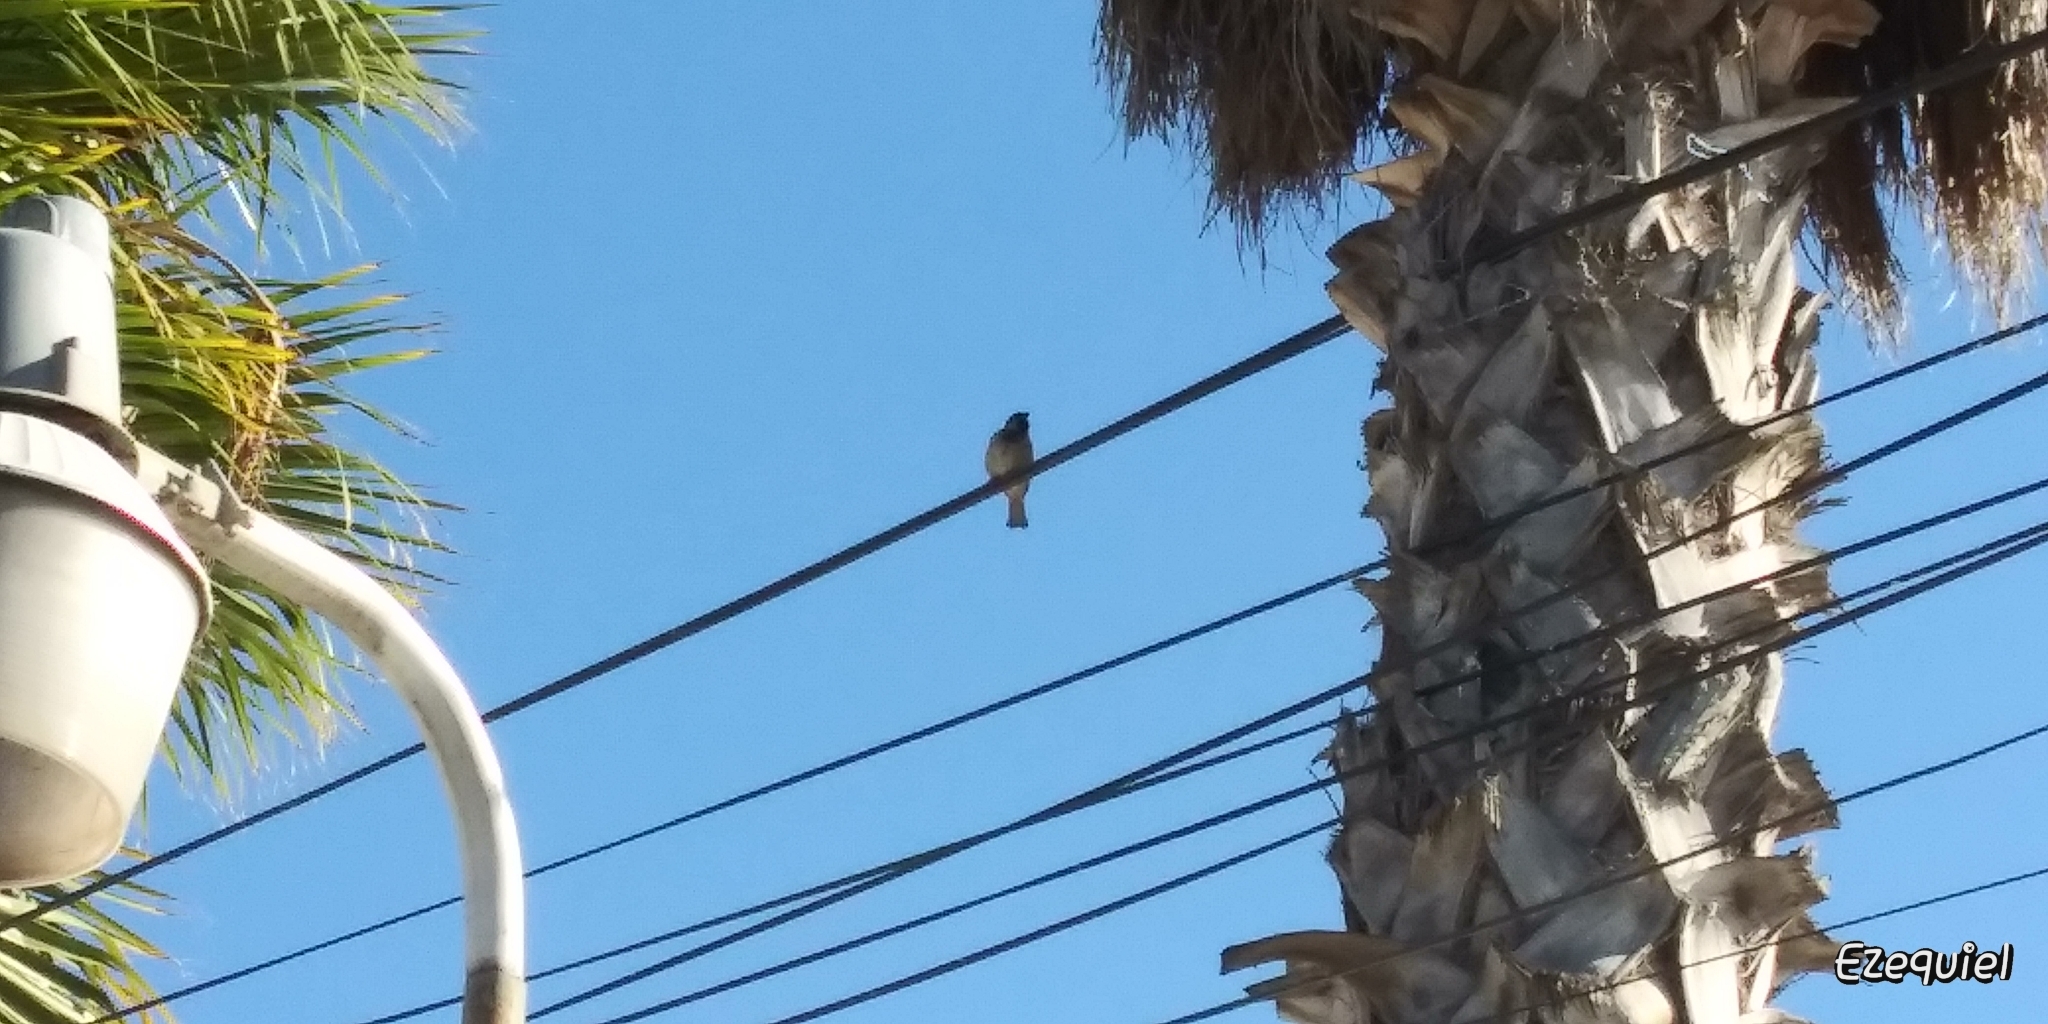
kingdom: Animalia
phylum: Chordata
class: Aves
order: Passeriformes
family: Passeridae
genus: Passer
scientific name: Passer domesticus
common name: House sparrow
